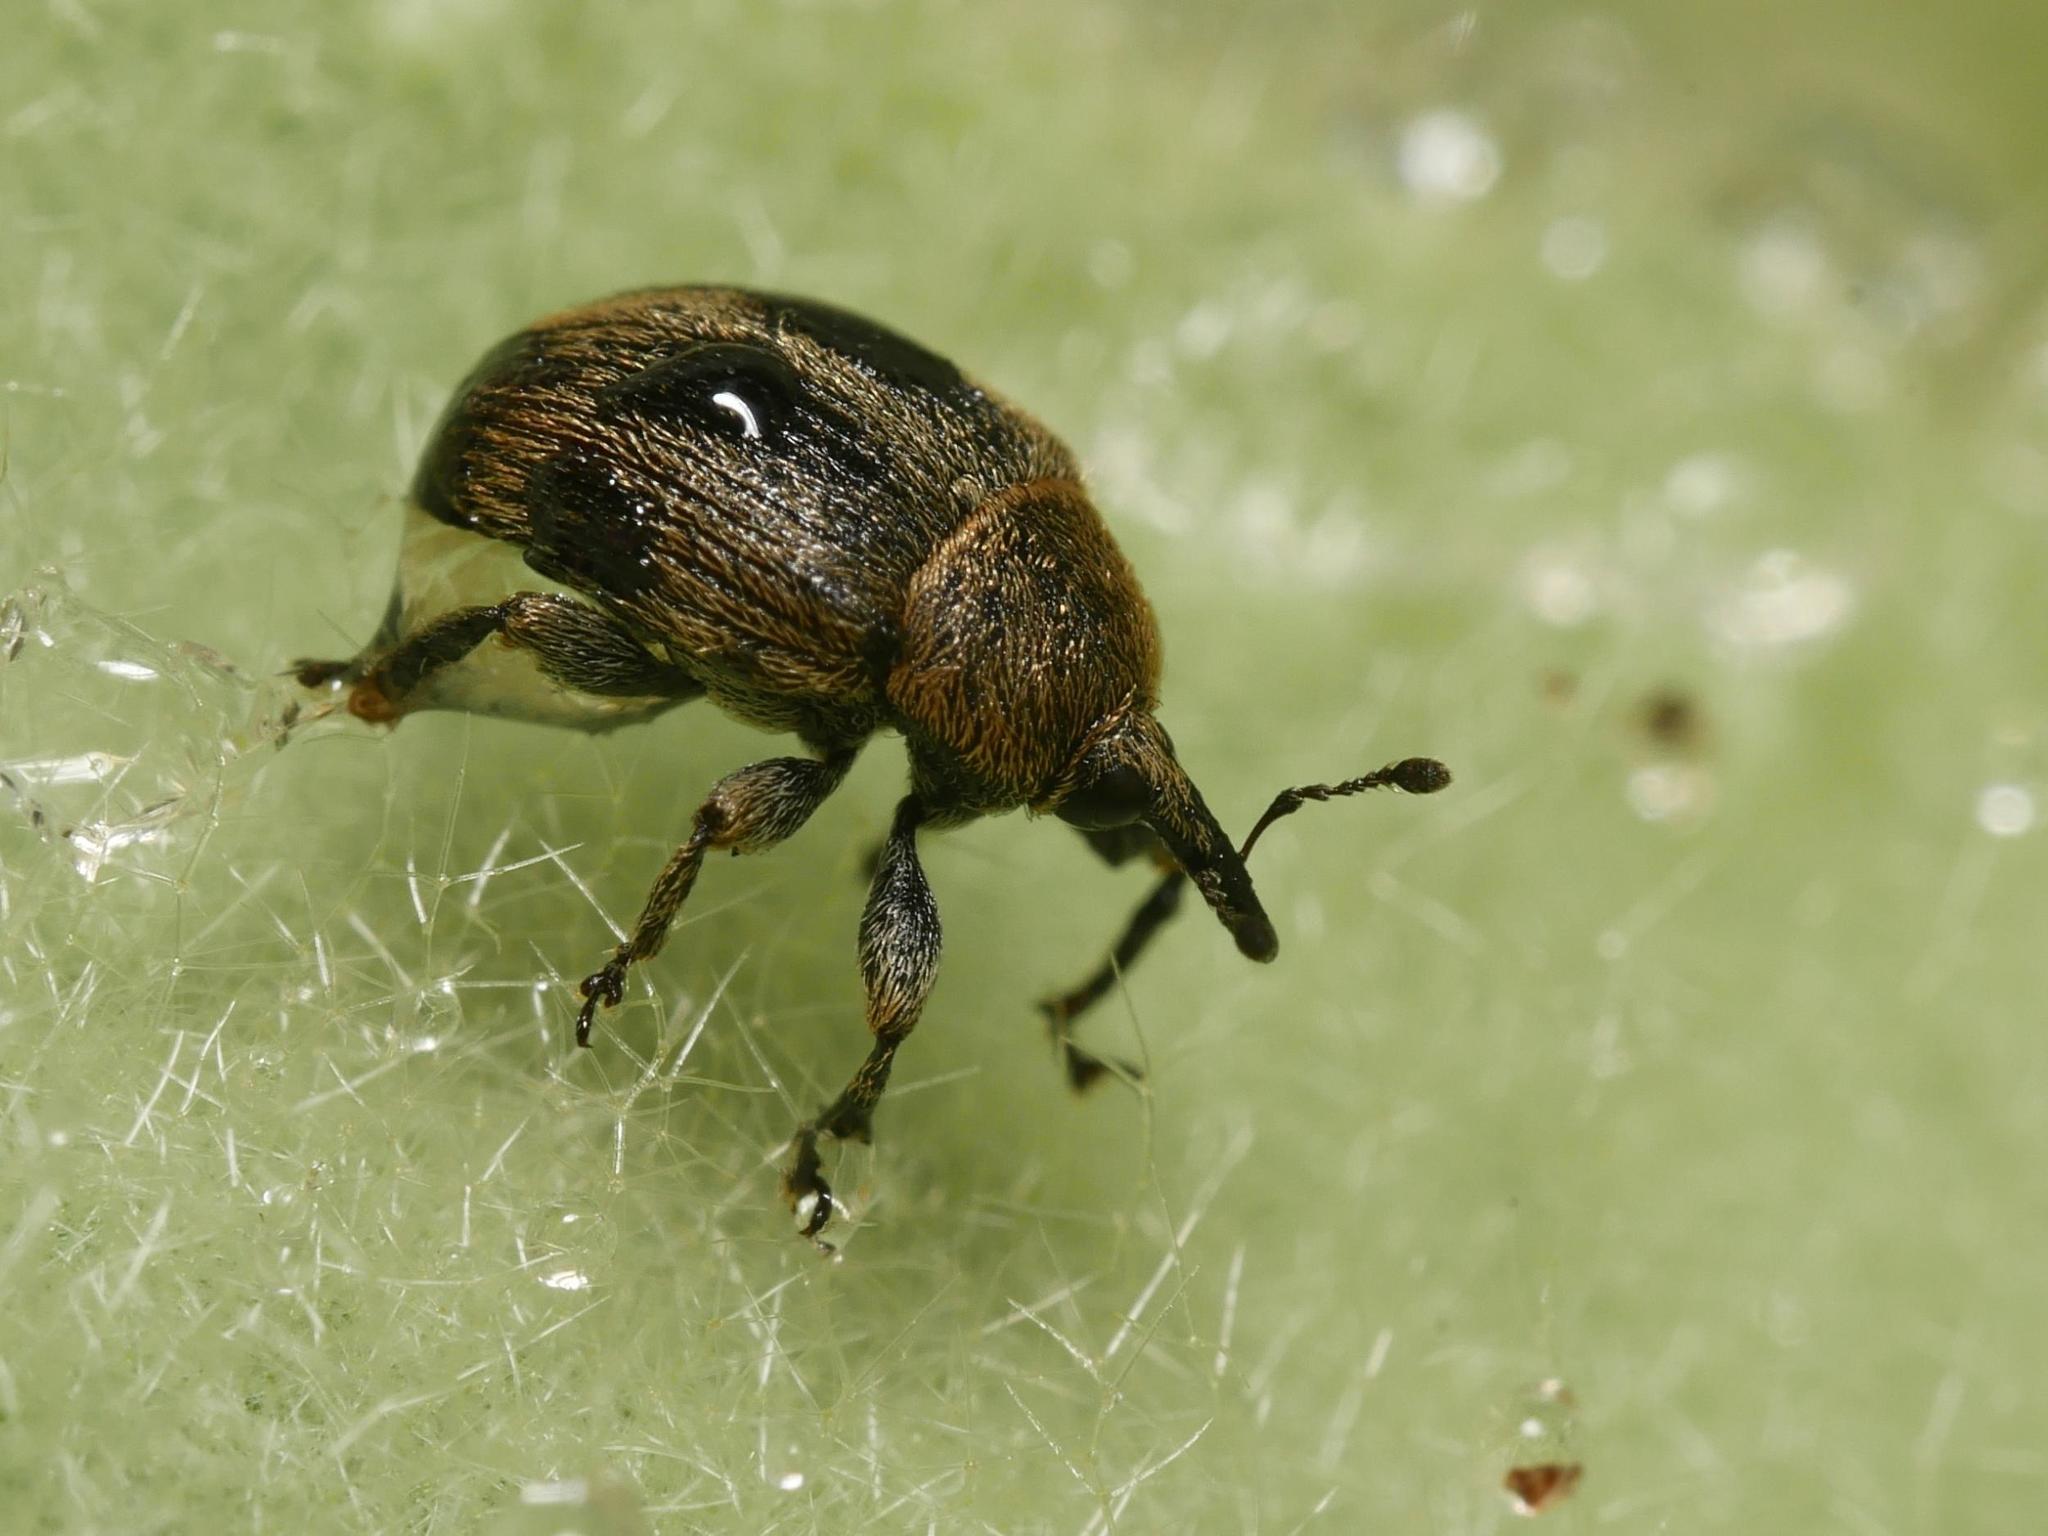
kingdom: Animalia
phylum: Arthropoda
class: Insecta
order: Coleoptera
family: Curculionidae
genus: Rhinusa
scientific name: Rhinusa tetra
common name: Weevil
